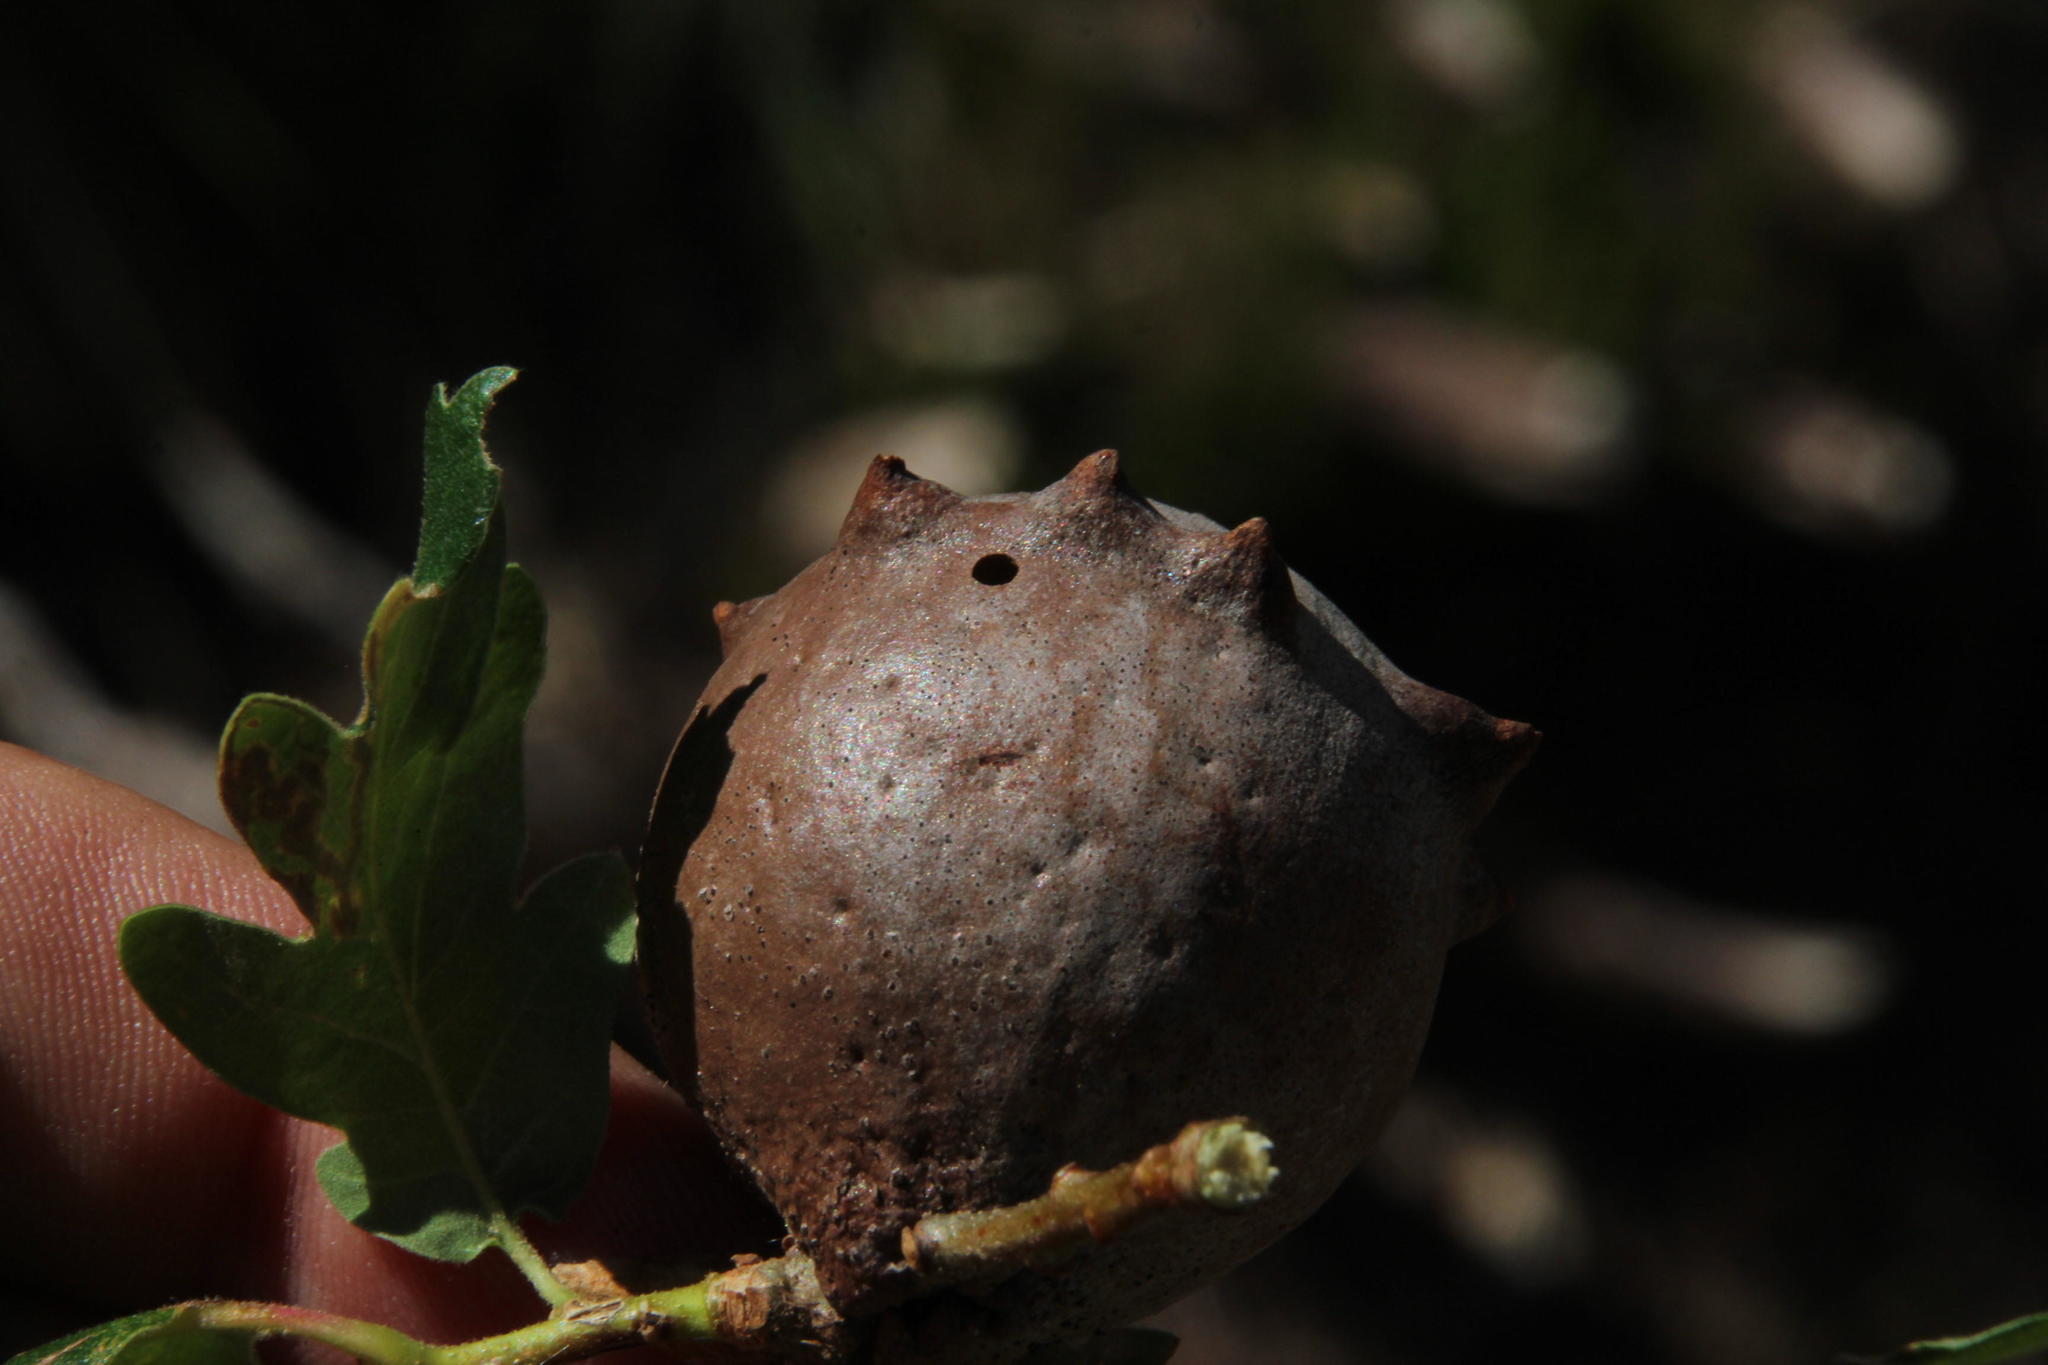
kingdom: Animalia
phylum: Arthropoda
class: Insecta
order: Hymenoptera
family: Cynipidae
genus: Andricus
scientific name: Andricus quercustozae
